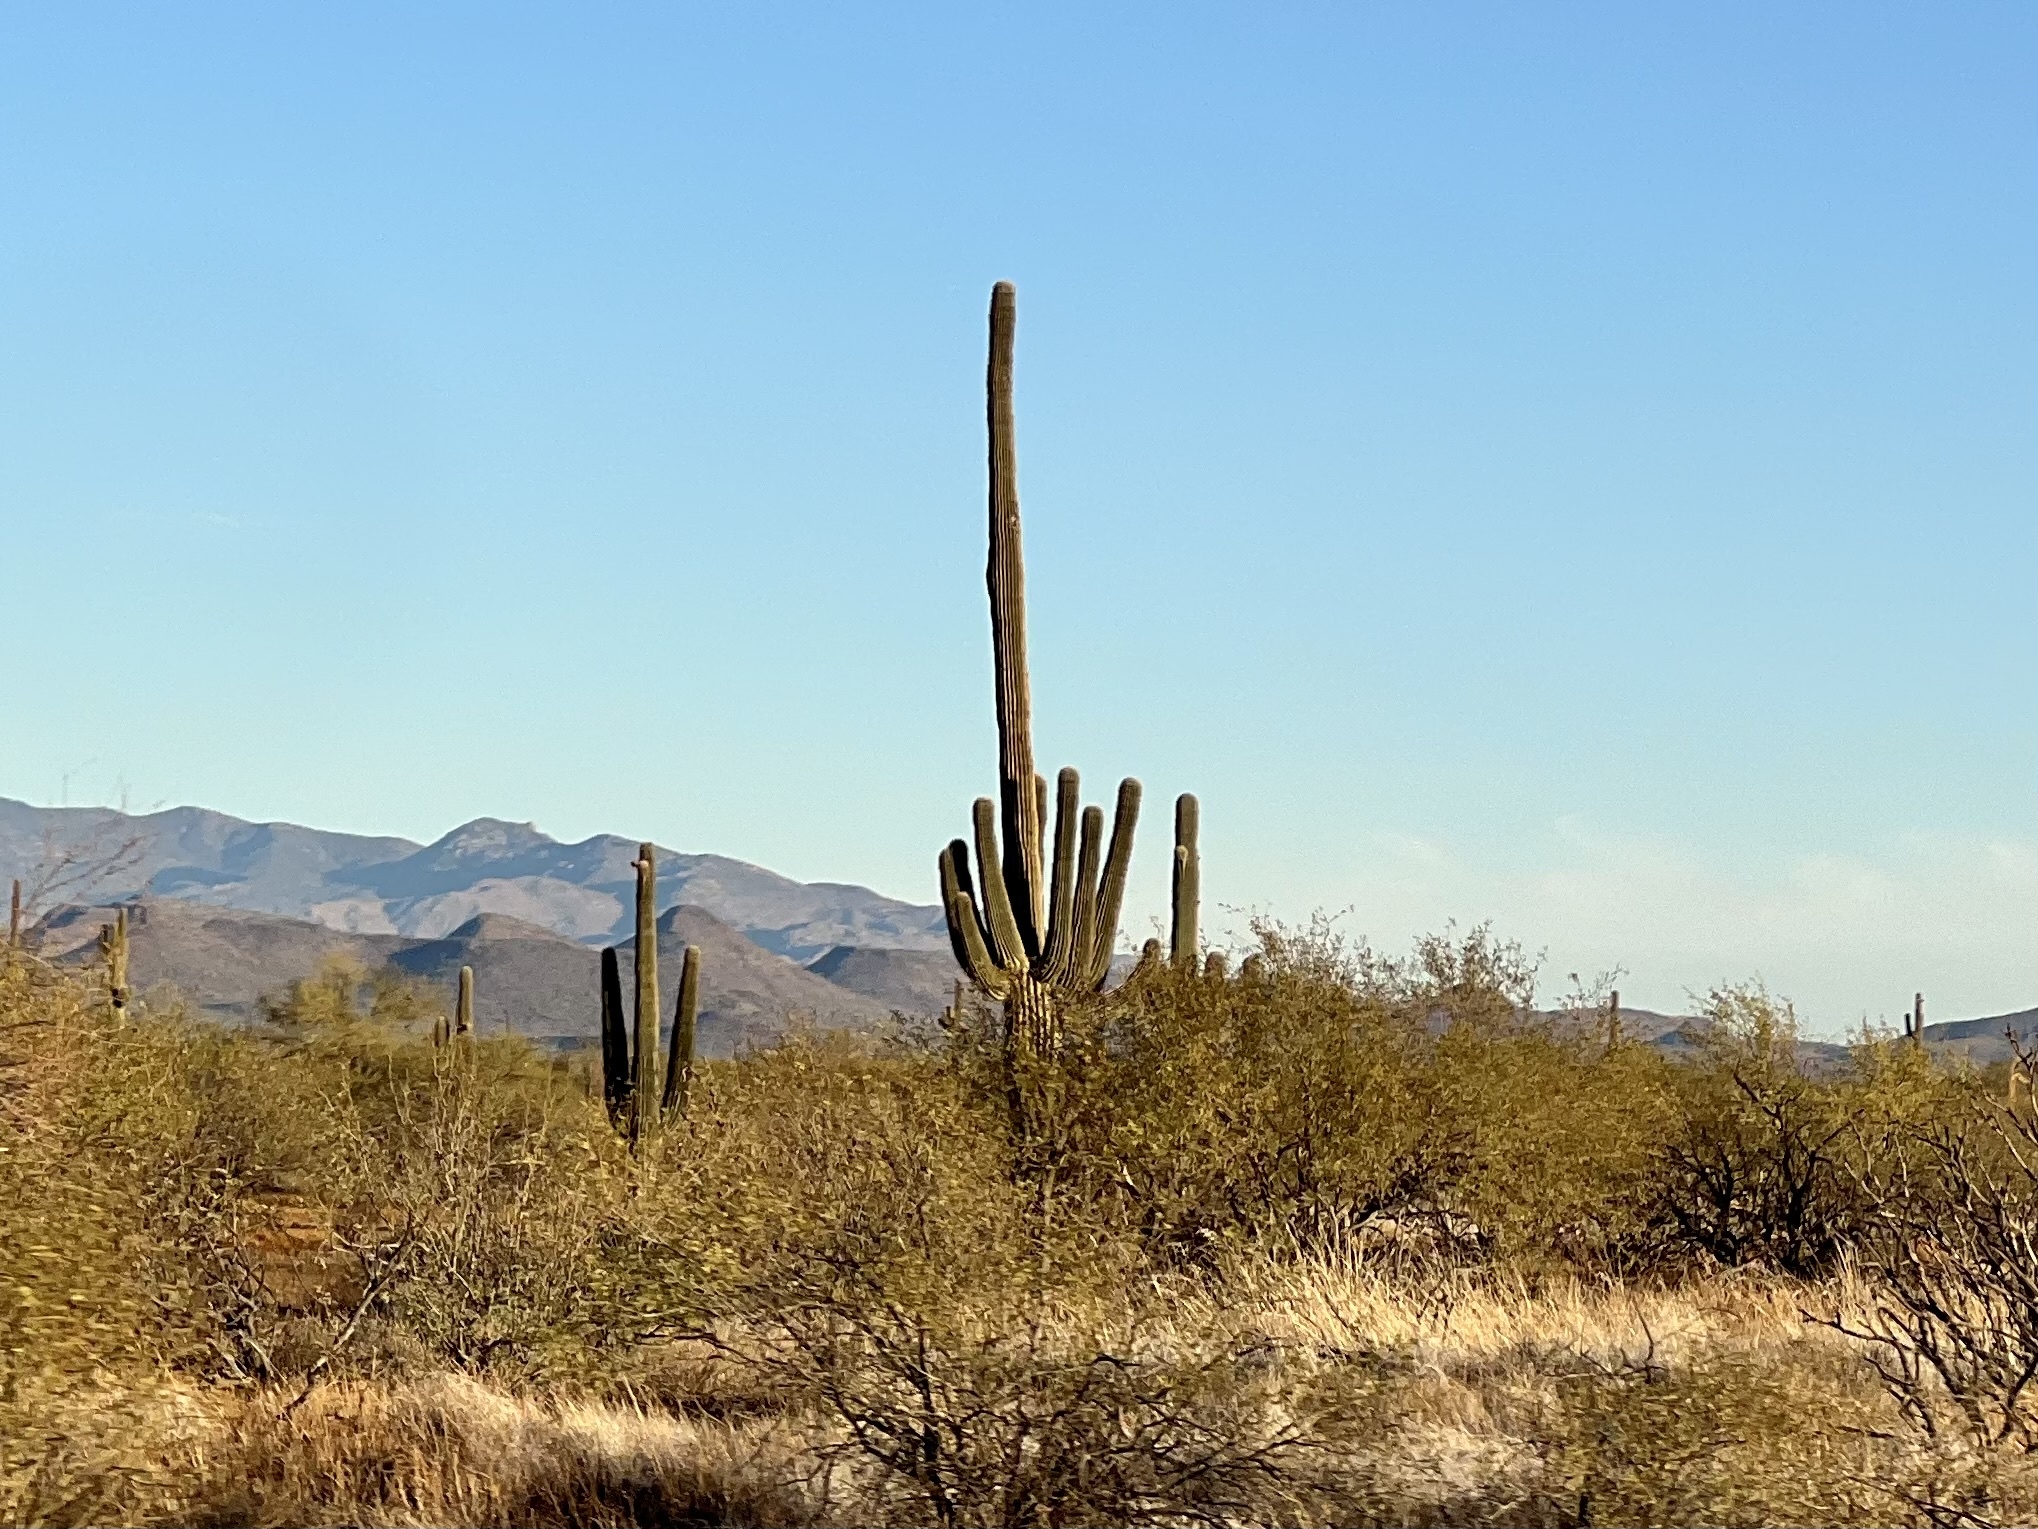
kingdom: Plantae
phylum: Tracheophyta
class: Magnoliopsida
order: Caryophyllales
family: Cactaceae
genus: Carnegiea
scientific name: Carnegiea gigantea
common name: Saguaro
